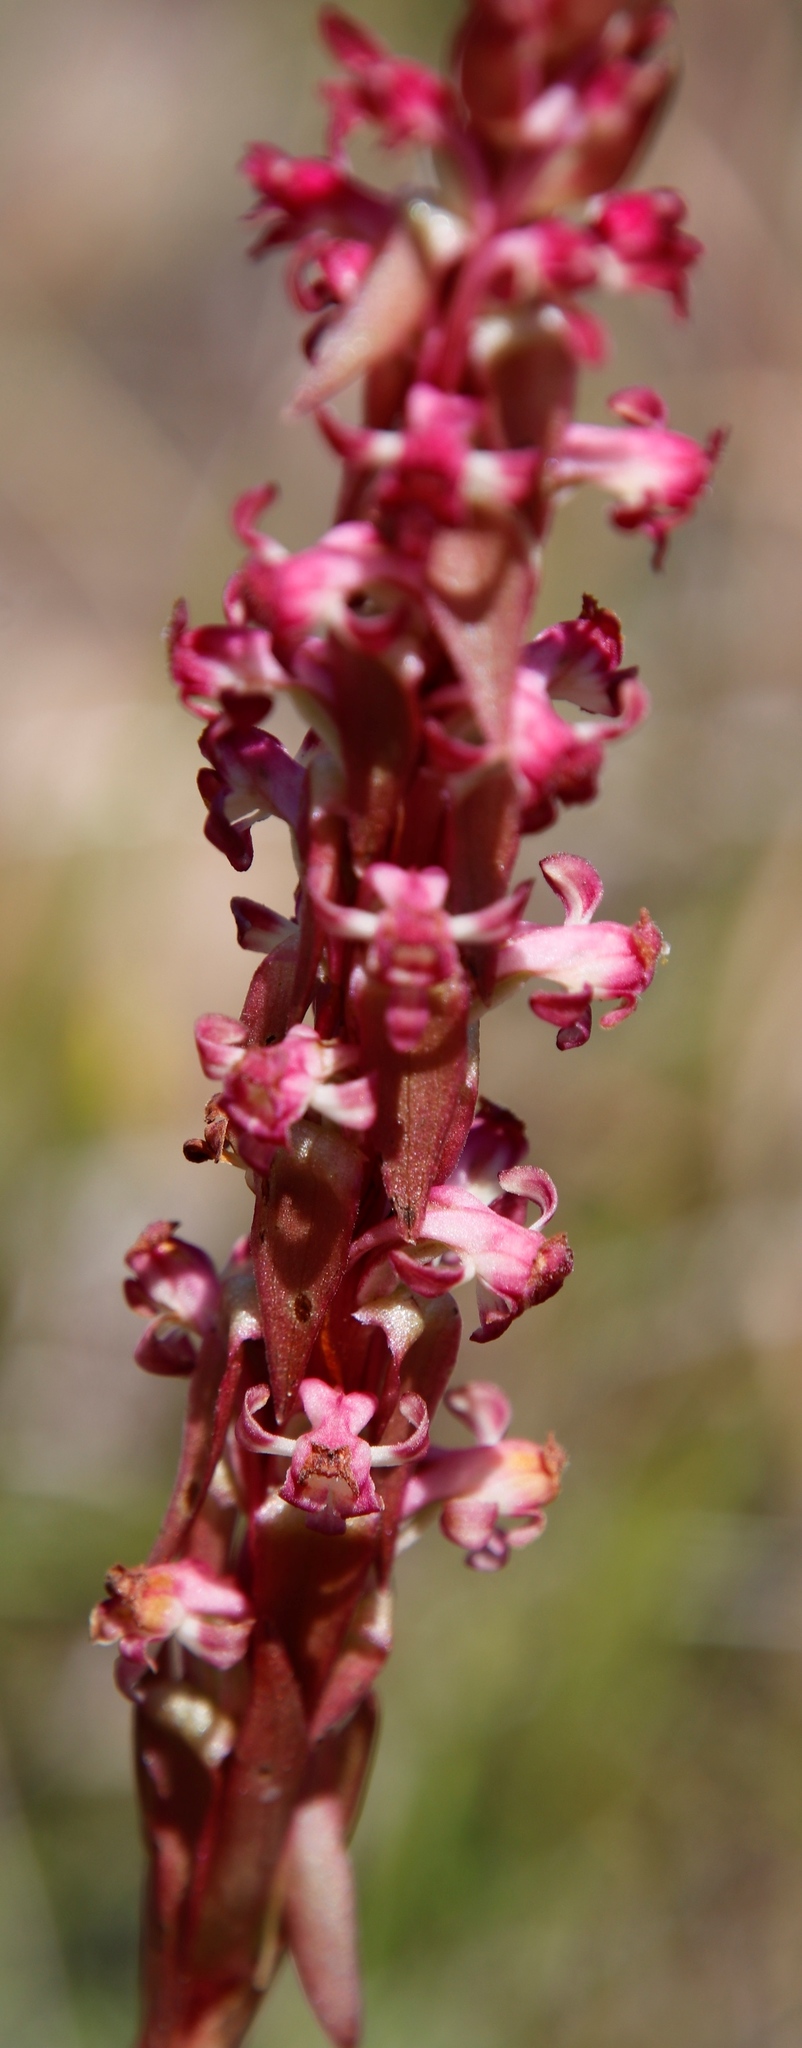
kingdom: Plantae
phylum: Tracheophyta
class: Liliopsida
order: Asparagales
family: Orchidaceae
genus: Satyrium
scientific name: Satyrium longicauda
